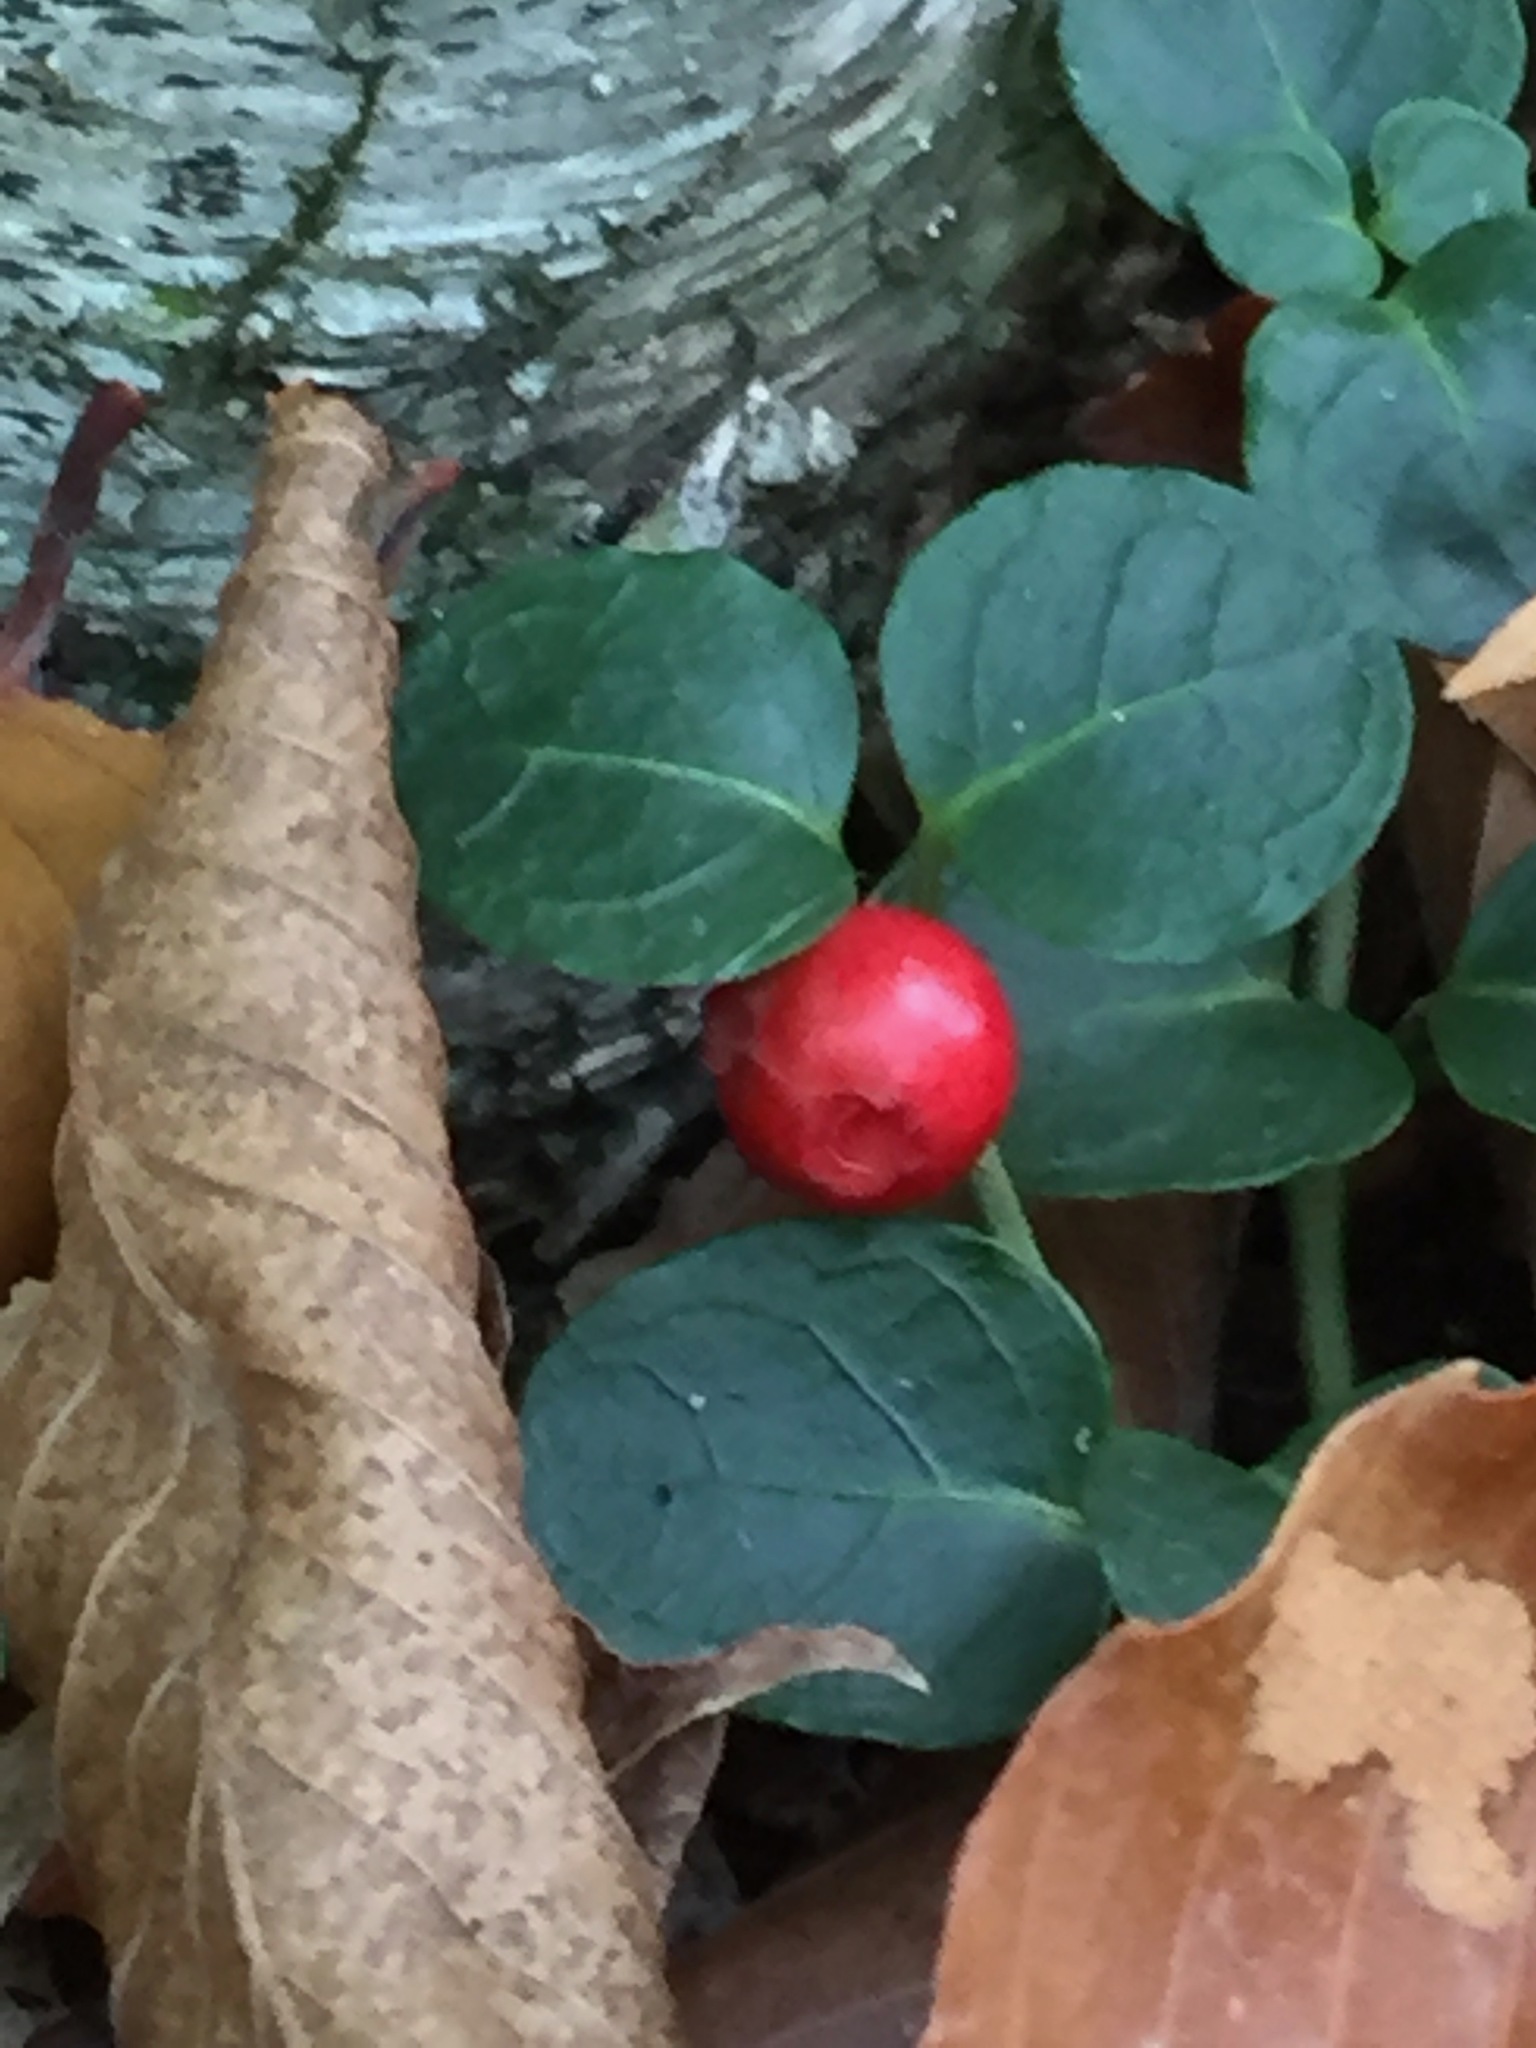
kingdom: Plantae
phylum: Tracheophyta
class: Magnoliopsida
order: Gentianales
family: Rubiaceae
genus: Mitchella
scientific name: Mitchella repens
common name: Partridge-berry
